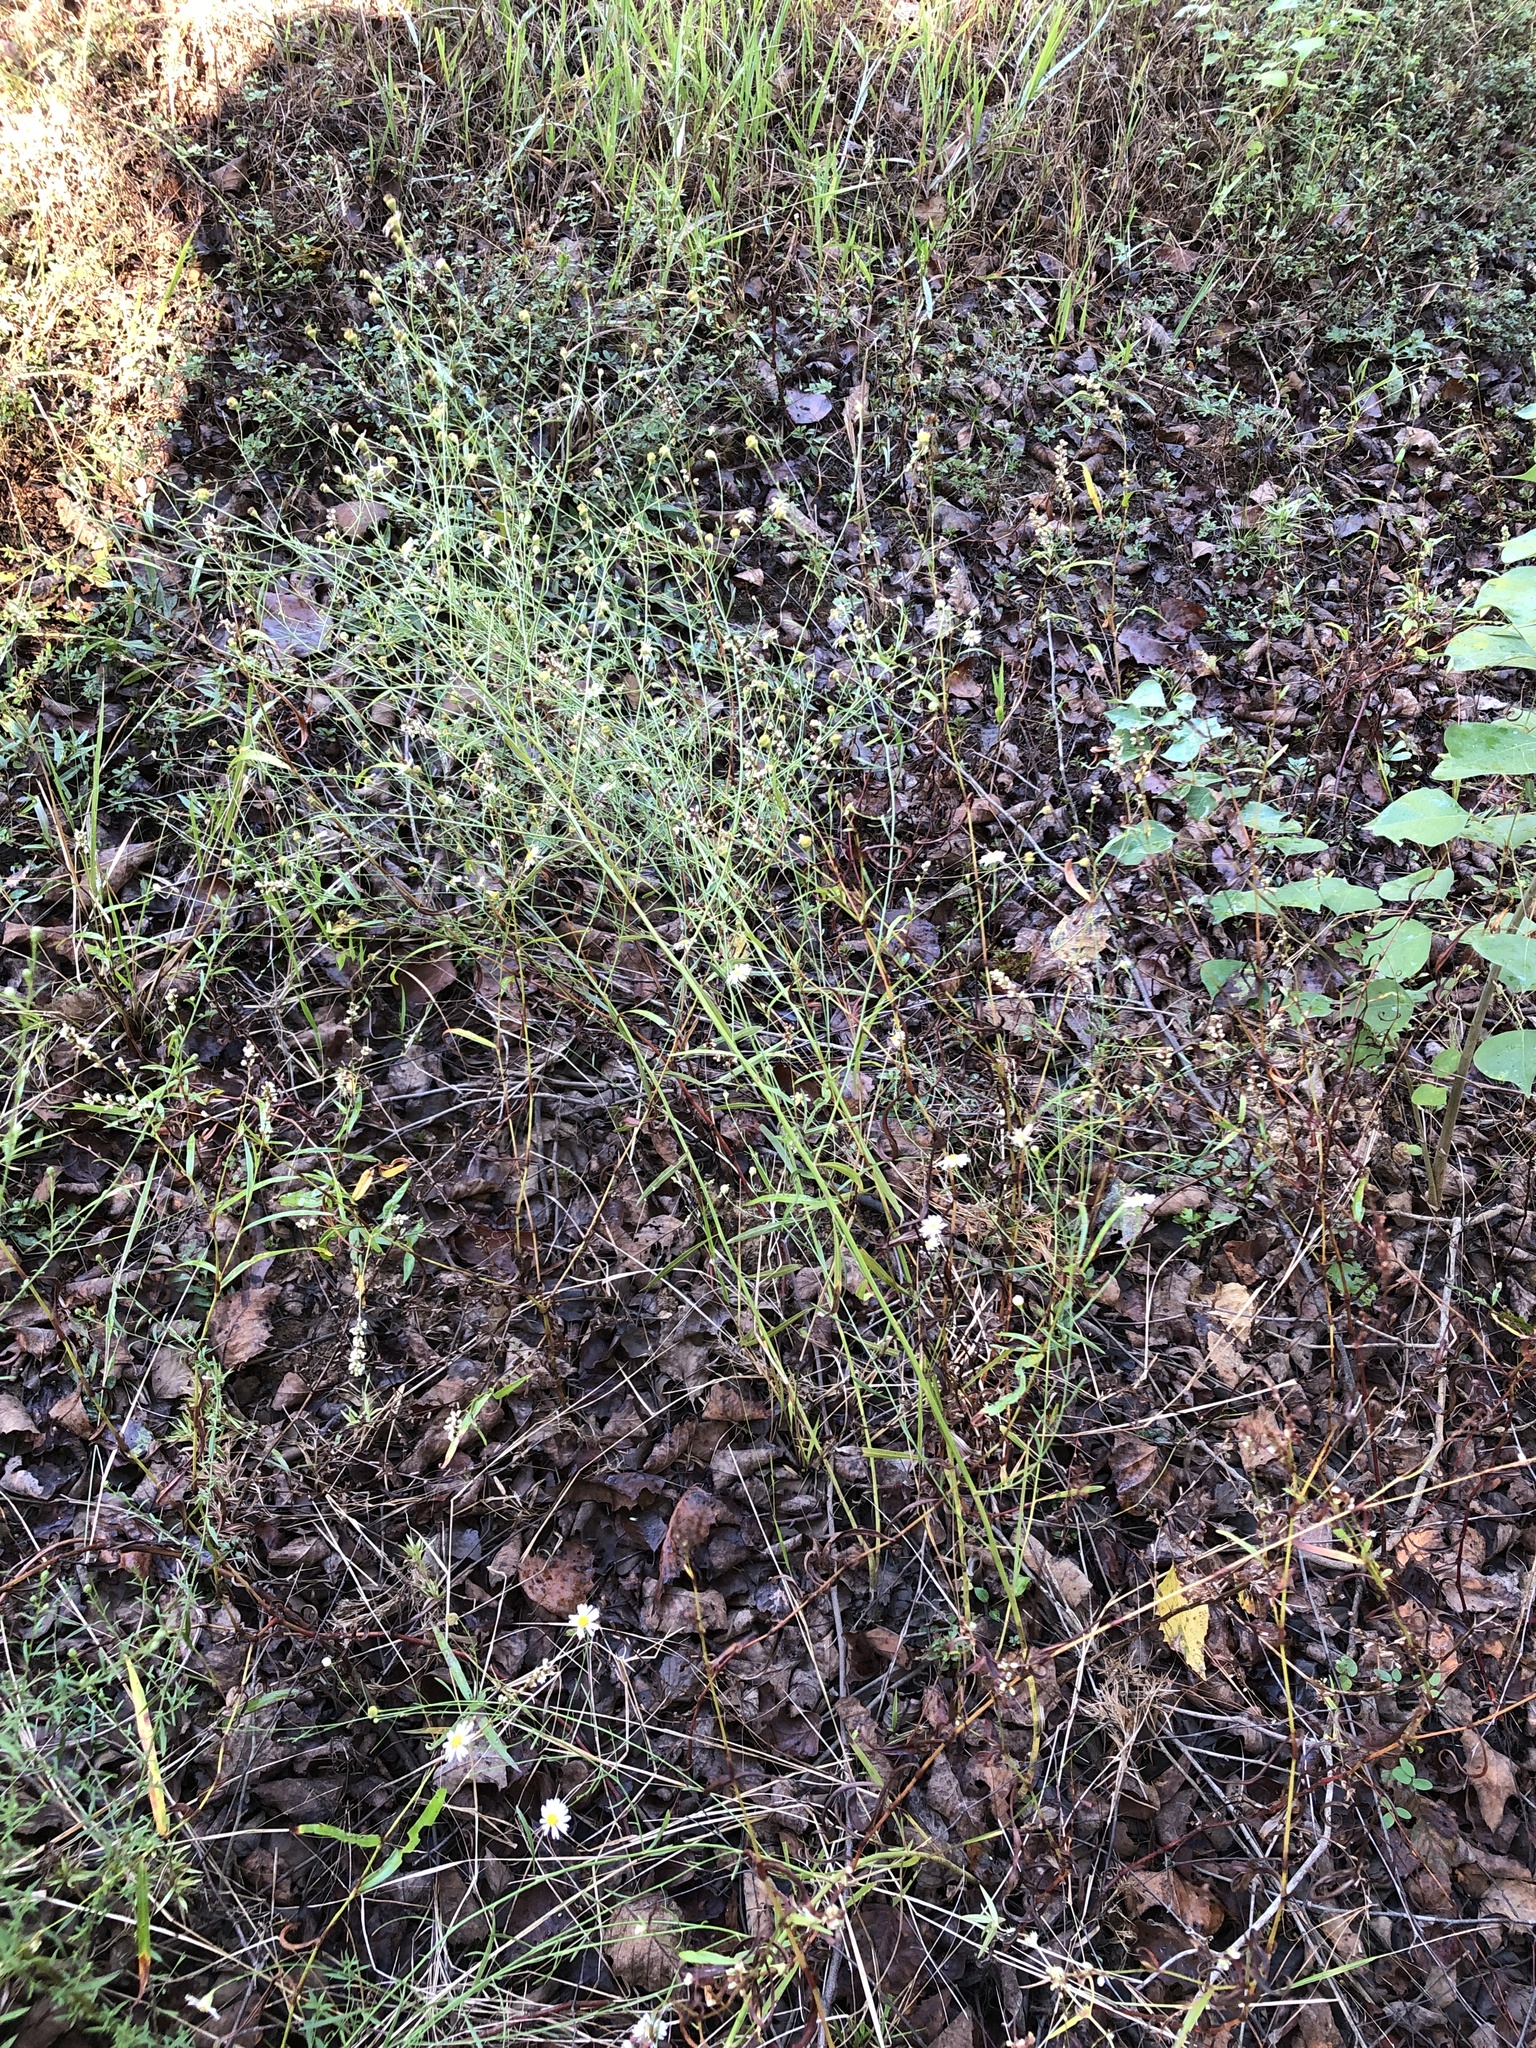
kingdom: Plantae
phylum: Tracheophyta
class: Magnoliopsida
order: Asterales
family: Asteraceae
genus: Boltonia
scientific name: Boltonia diffusa
